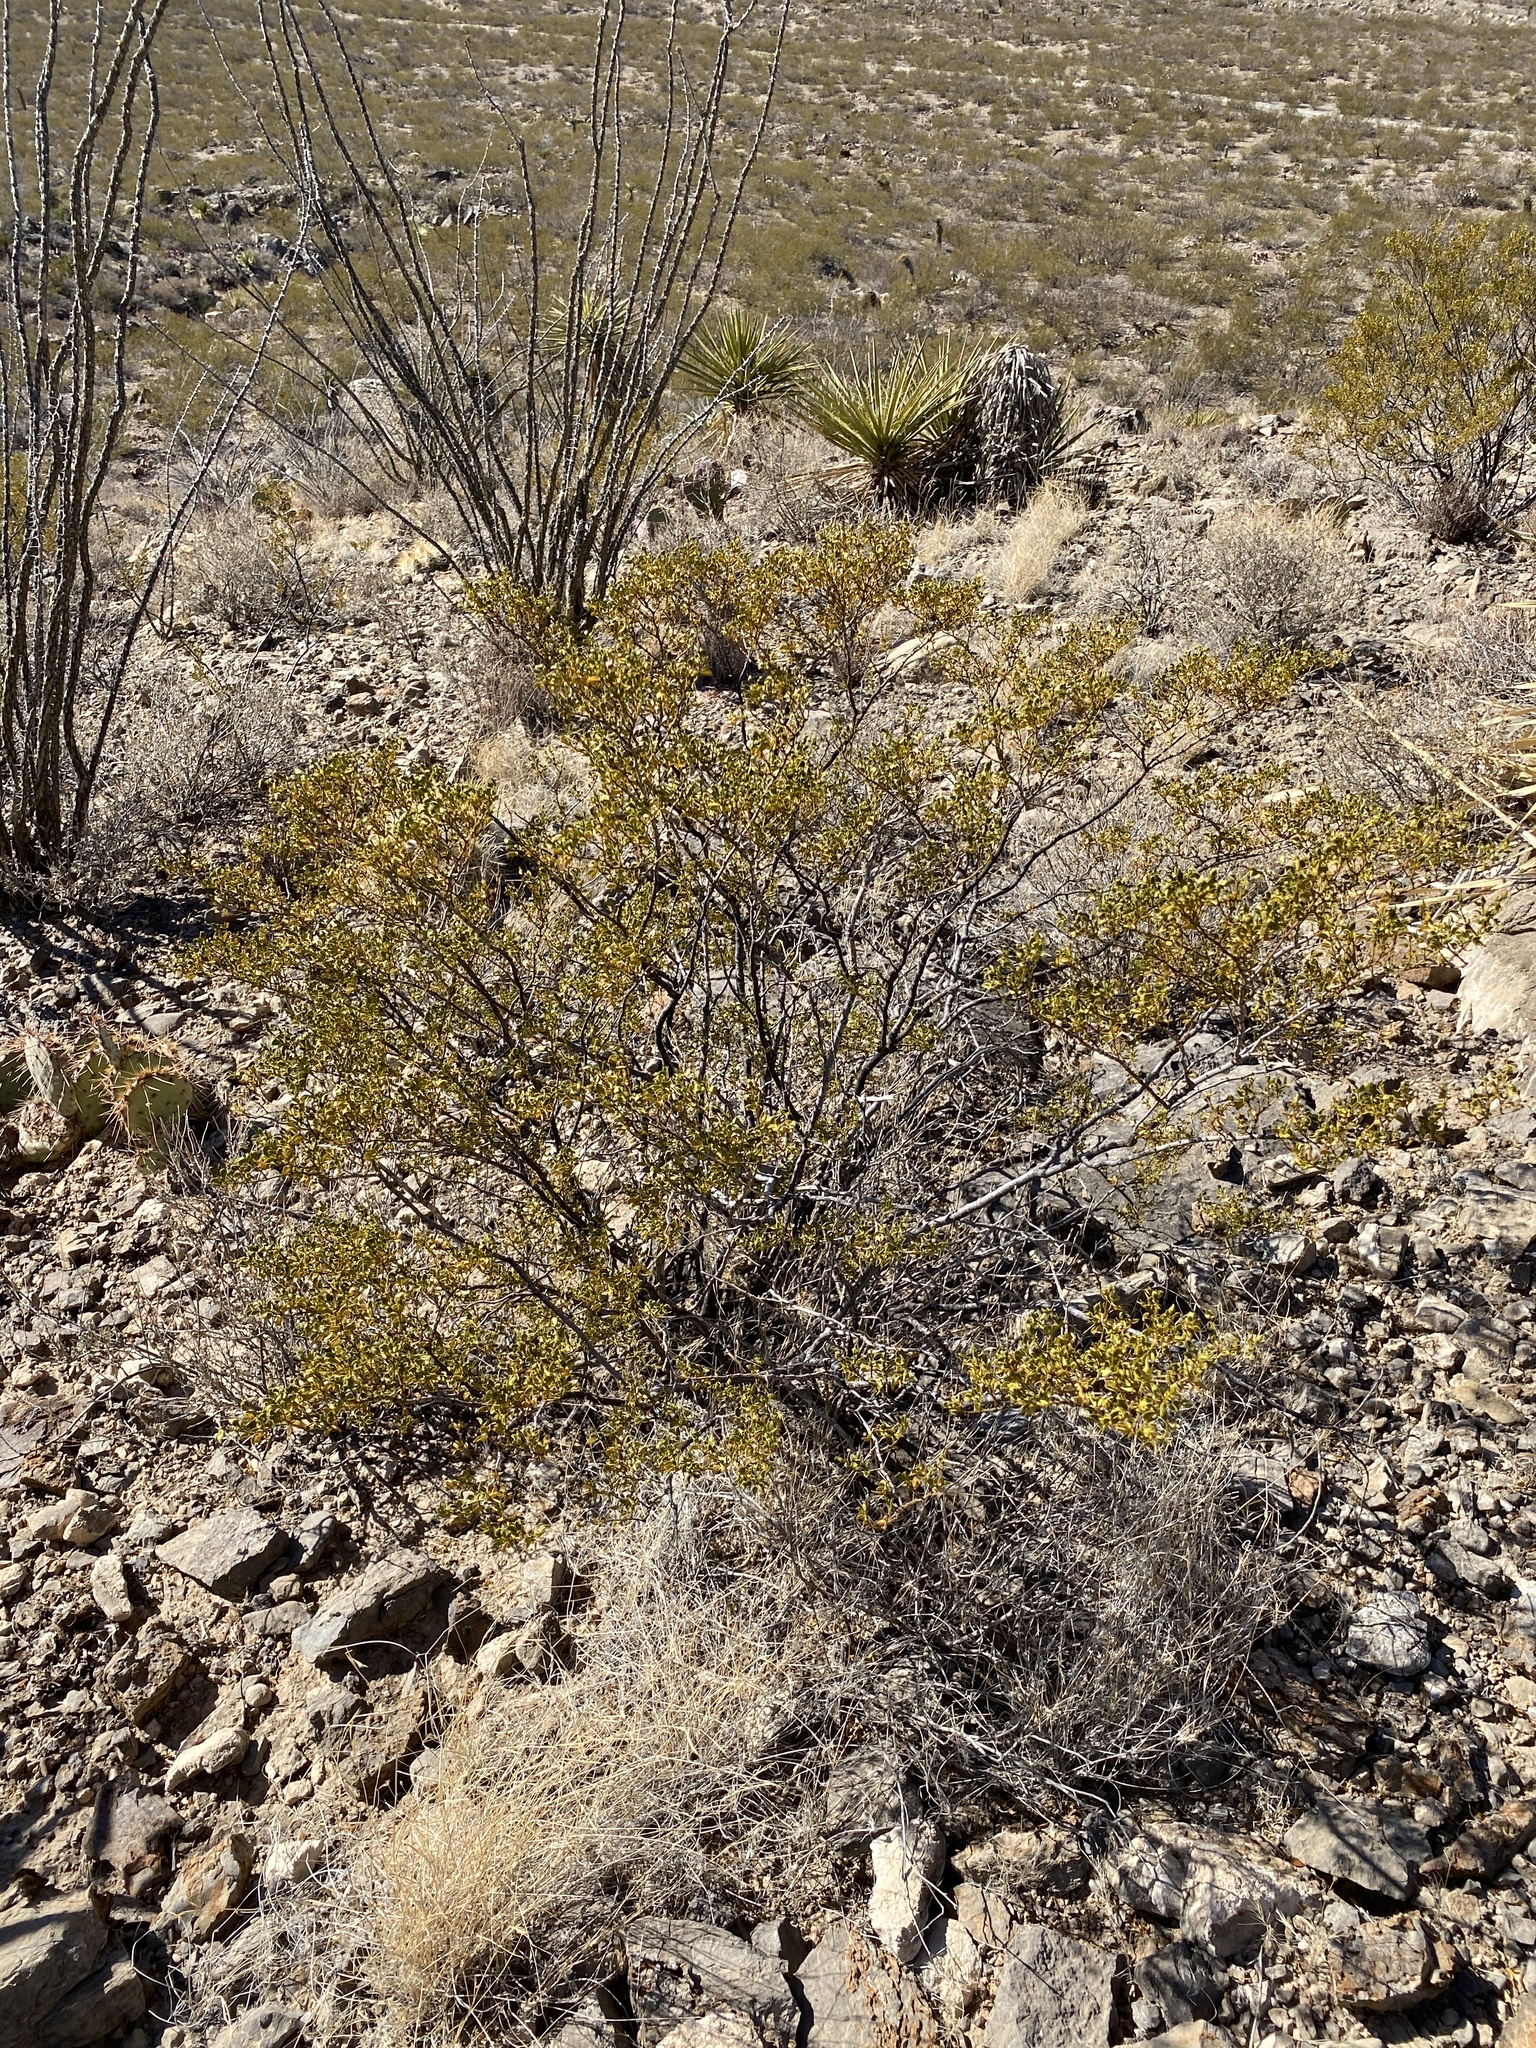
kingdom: Plantae
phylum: Tracheophyta
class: Magnoliopsida
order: Zygophyllales
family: Zygophyllaceae
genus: Larrea
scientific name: Larrea tridentata
